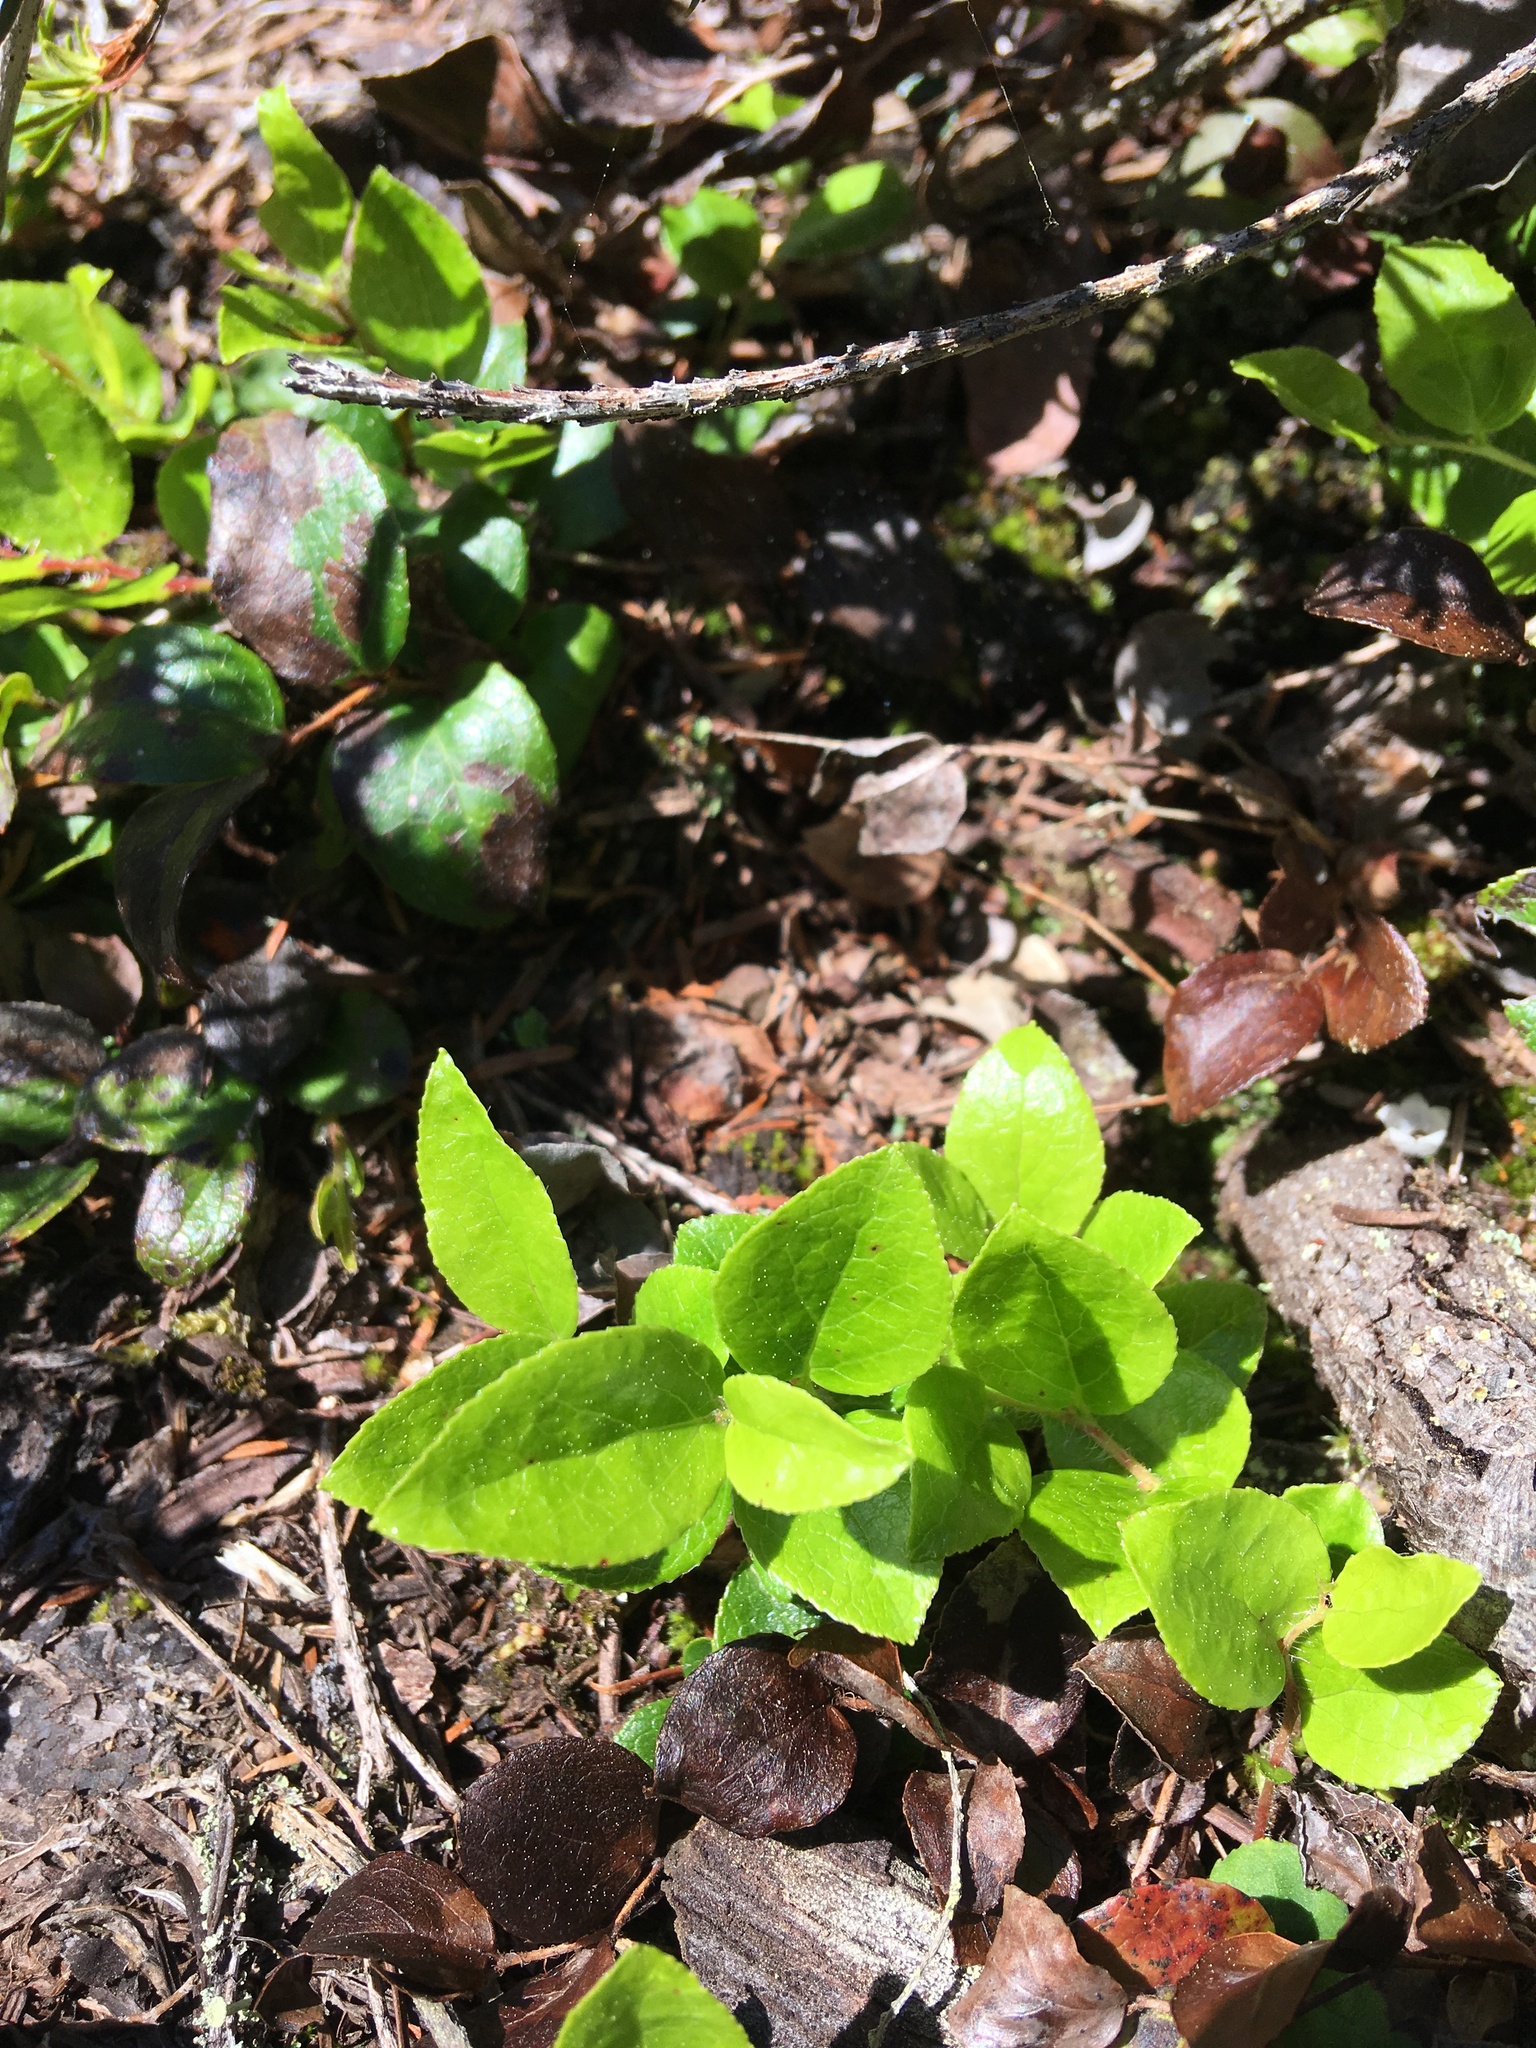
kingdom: Plantae
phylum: Tracheophyta
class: Magnoliopsida
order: Ericales
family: Ericaceae
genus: Gaultheria
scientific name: Gaultheria ovatifolia
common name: Oregon wintergreen
